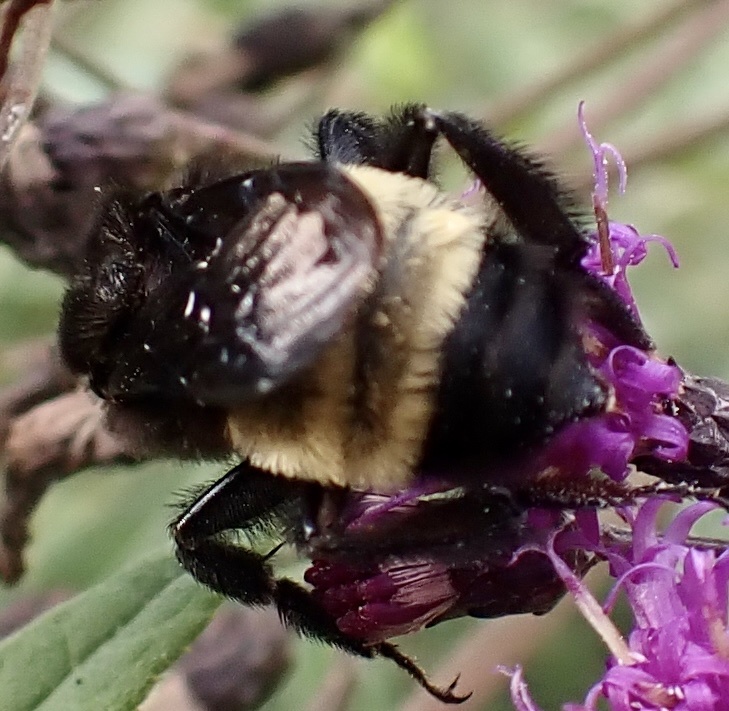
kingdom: Animalia
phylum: Arthropoda
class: Insecta
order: Hymenoptera
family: Apidae
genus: Bombus
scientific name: Bombus pensylvanicus
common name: Bumble bee
